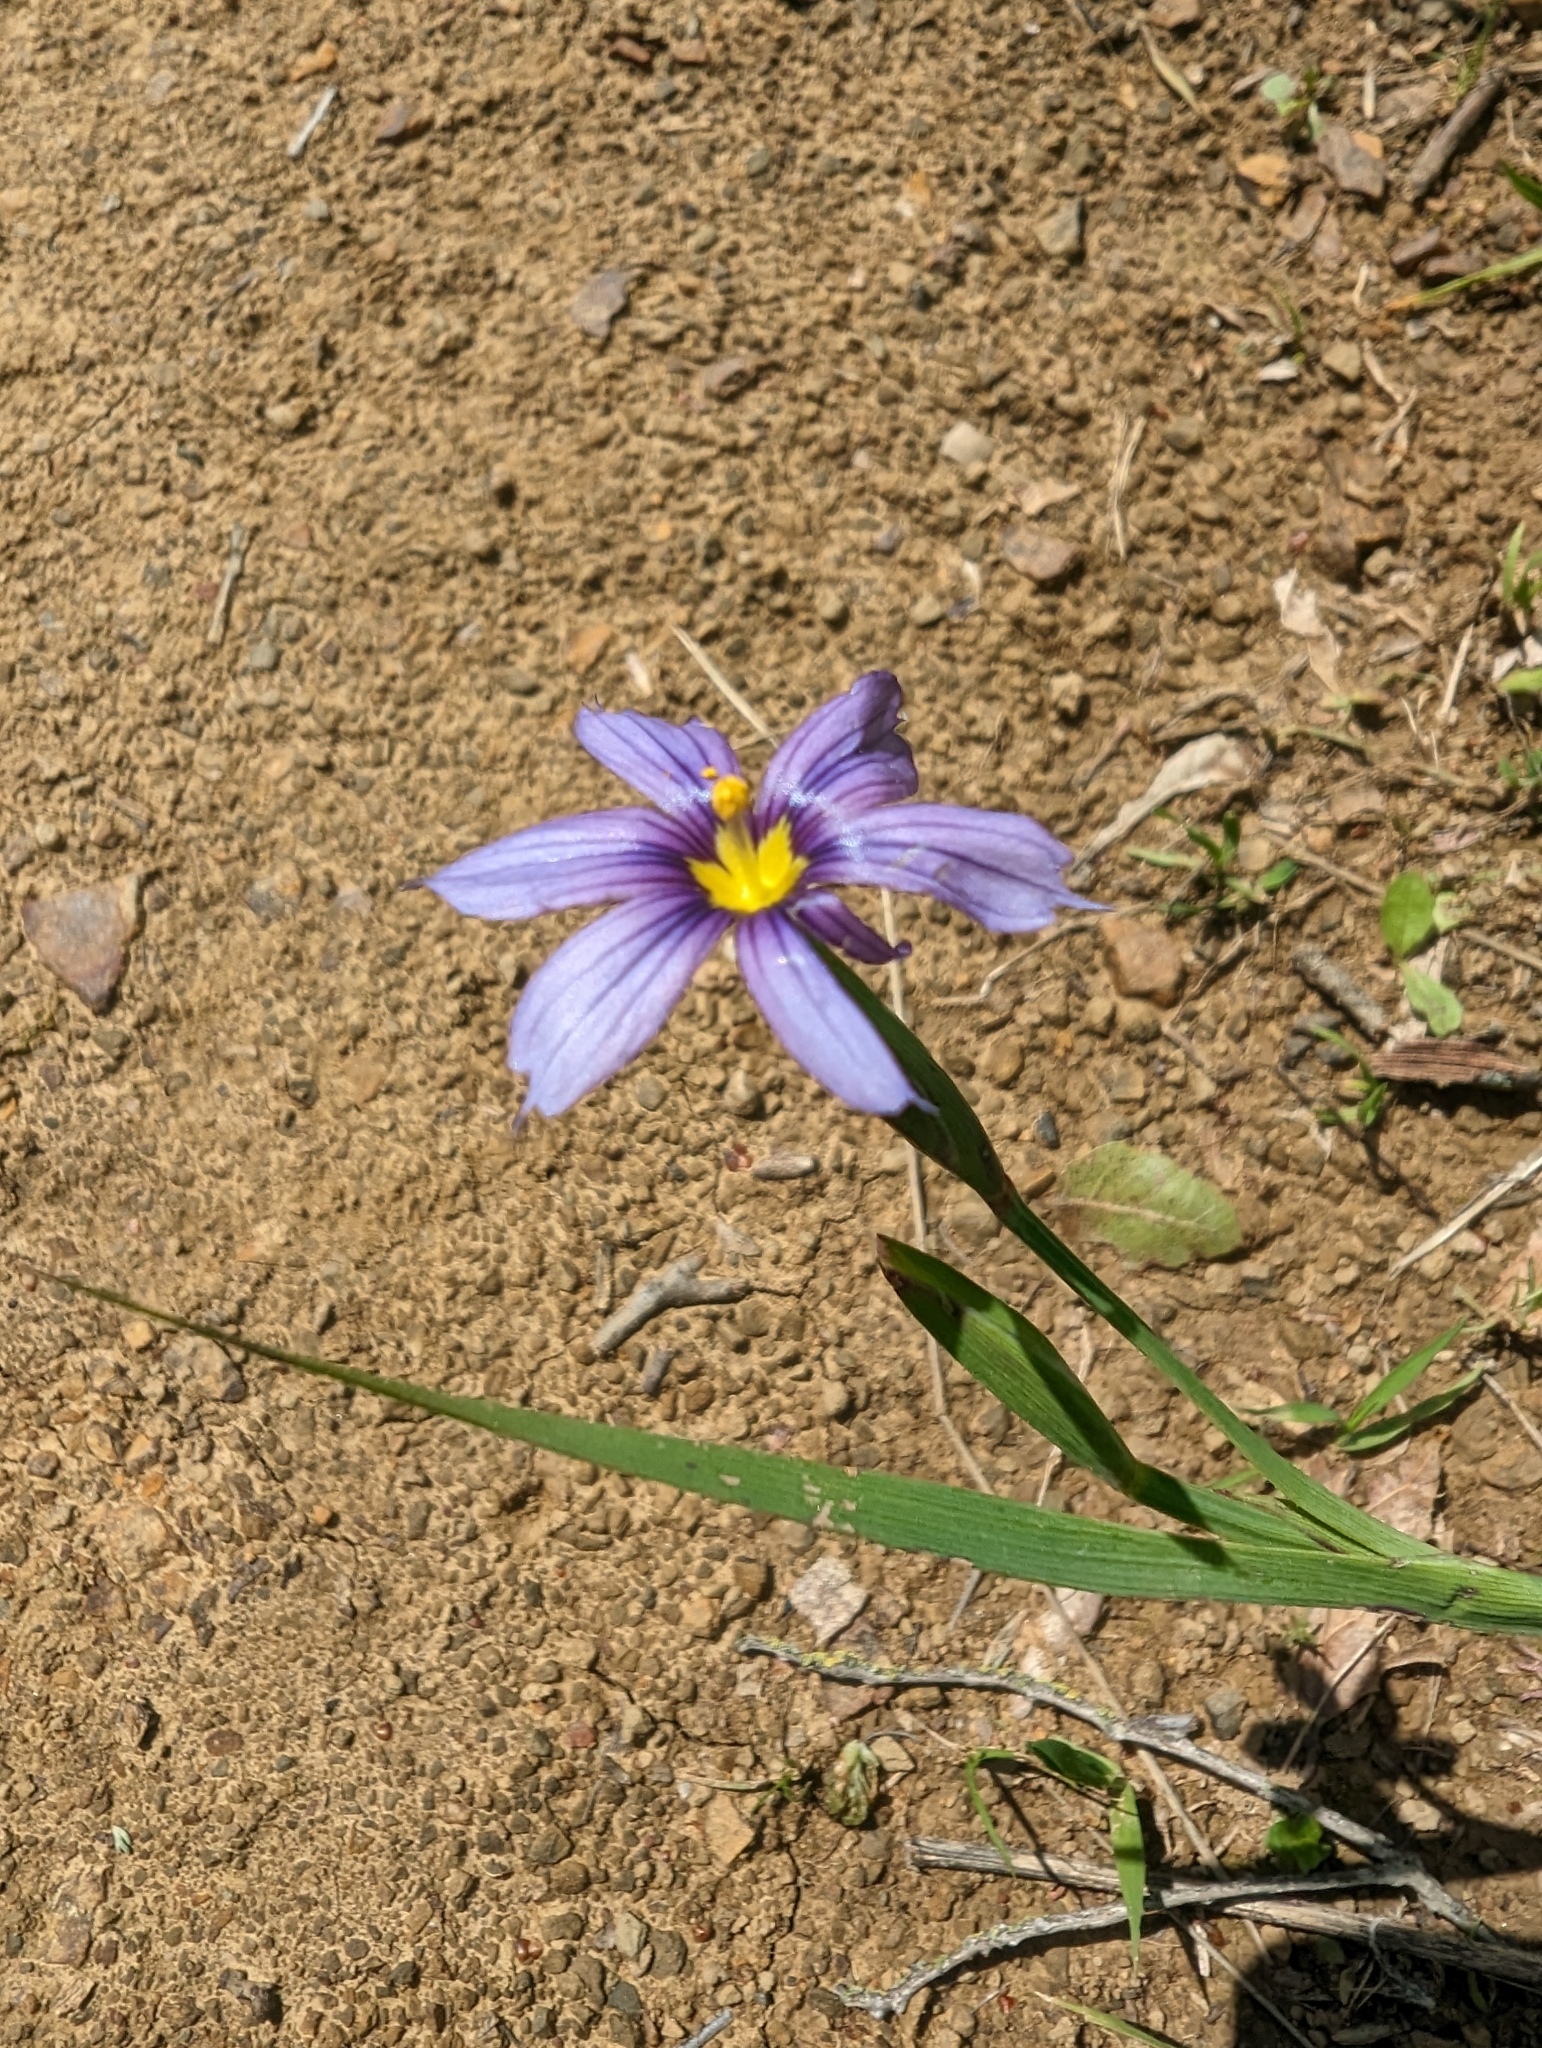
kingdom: Plantae
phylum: Tracheophyta
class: Liliopsida
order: Asparagales
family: Iridaceae
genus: Sisyrinchium
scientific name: Sisyrinchium bellum
